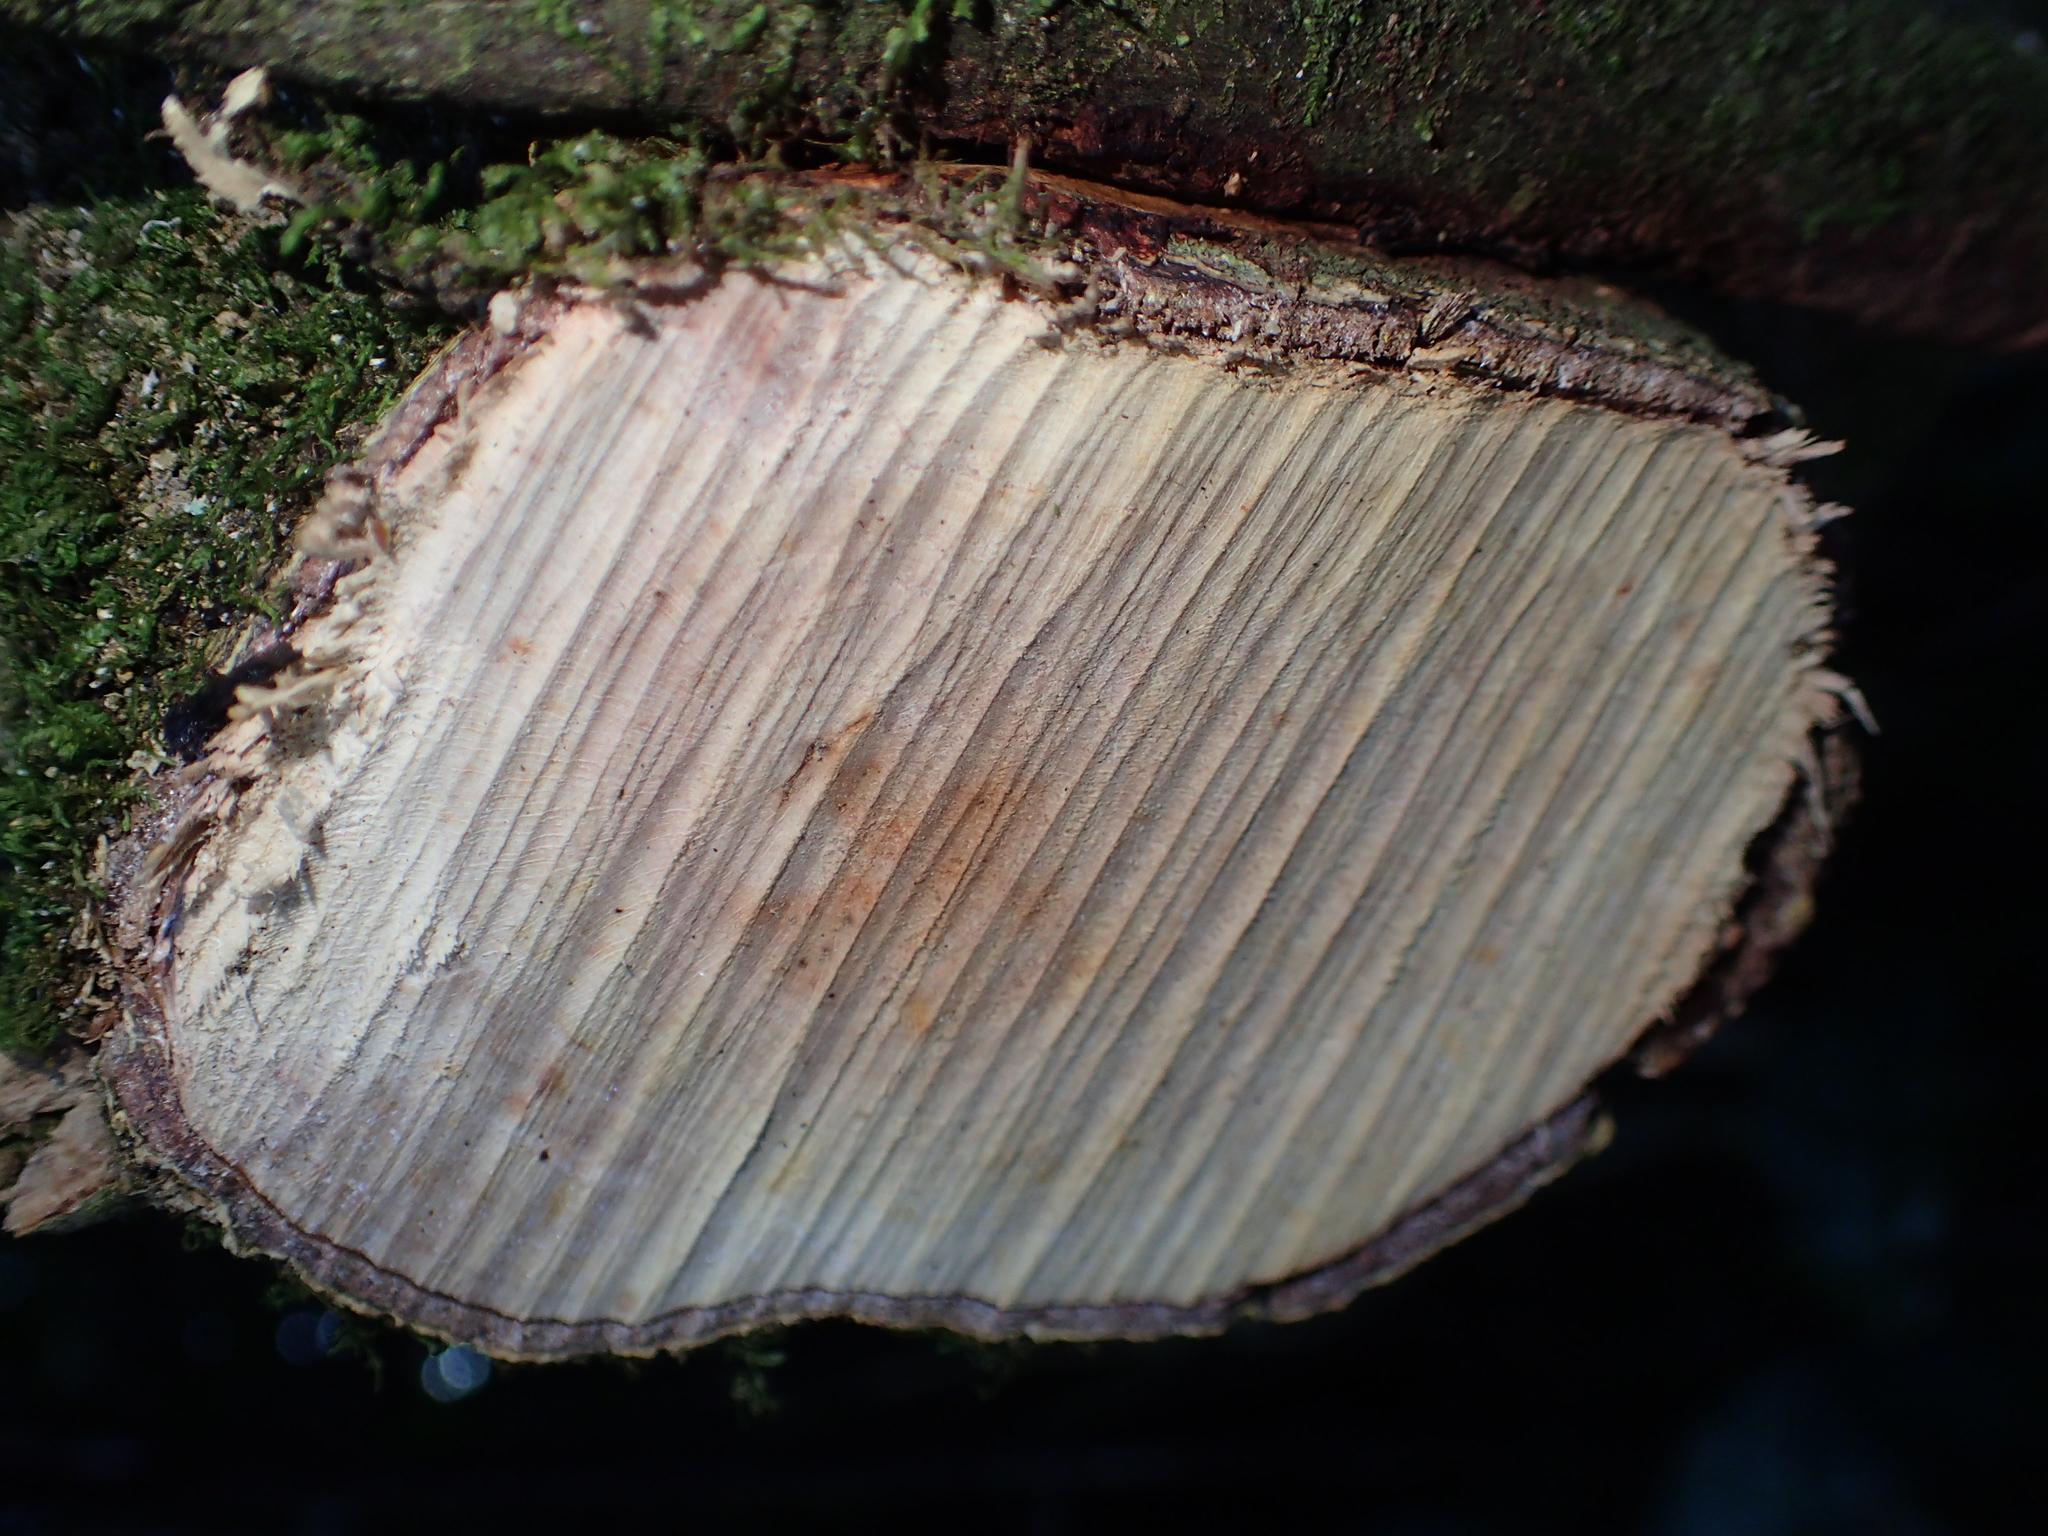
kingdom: Plantae
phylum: Tracheophyta
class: Magnoliopsida
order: Gentianales
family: Rubiaceae
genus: Coprosma
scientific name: Coprosma areolata
